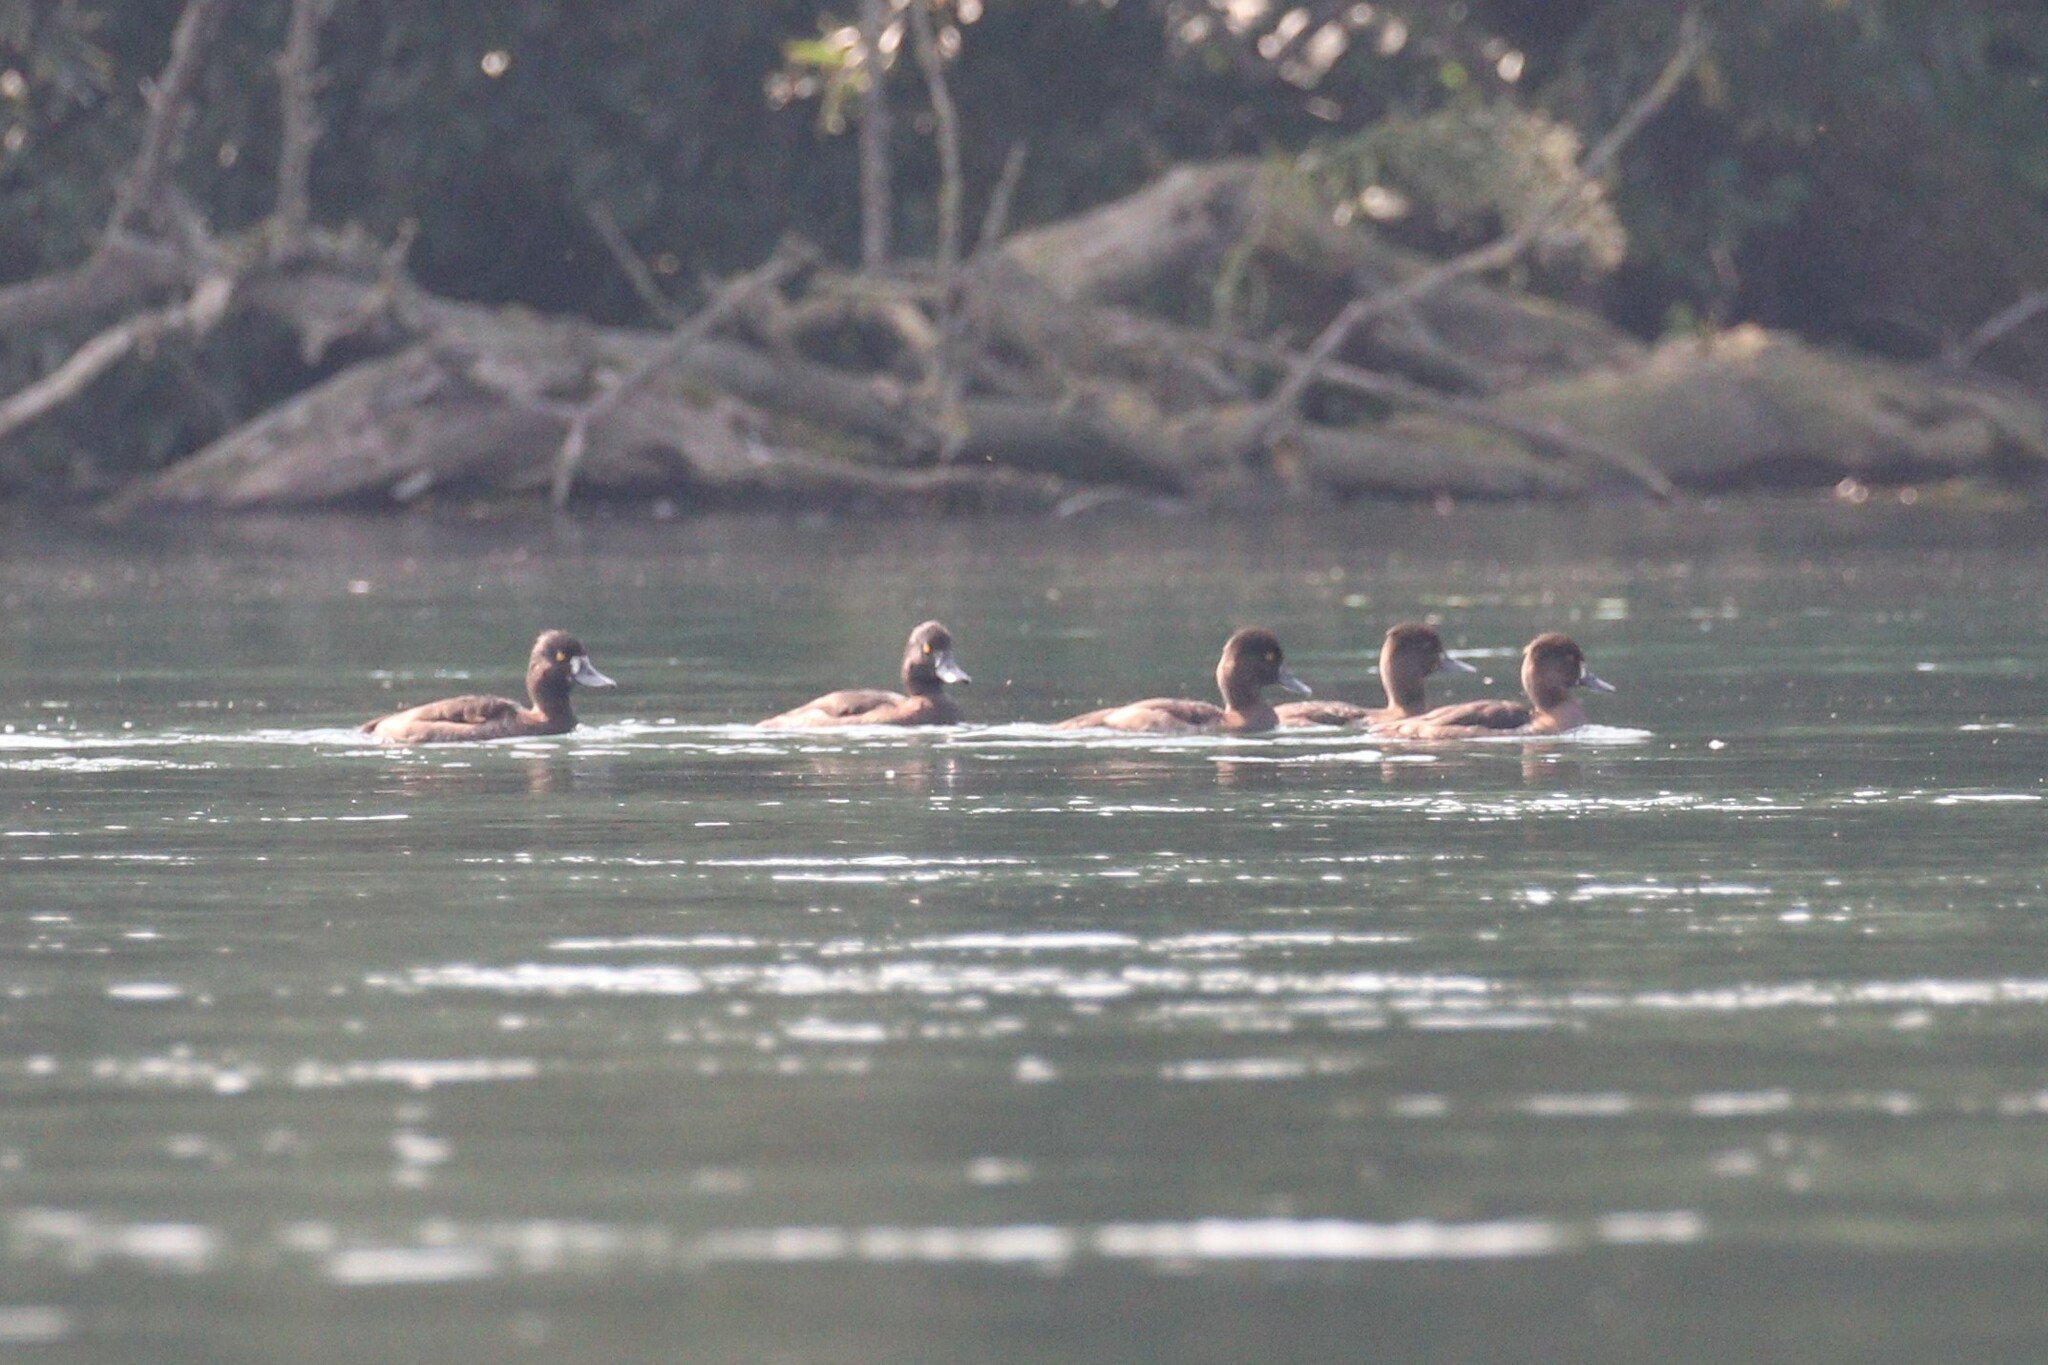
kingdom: Animalia
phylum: Chordata
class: Aves
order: Anseriformes
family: Anatidae
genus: Aythya
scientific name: Aythya fuligula
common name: Tufted duck
